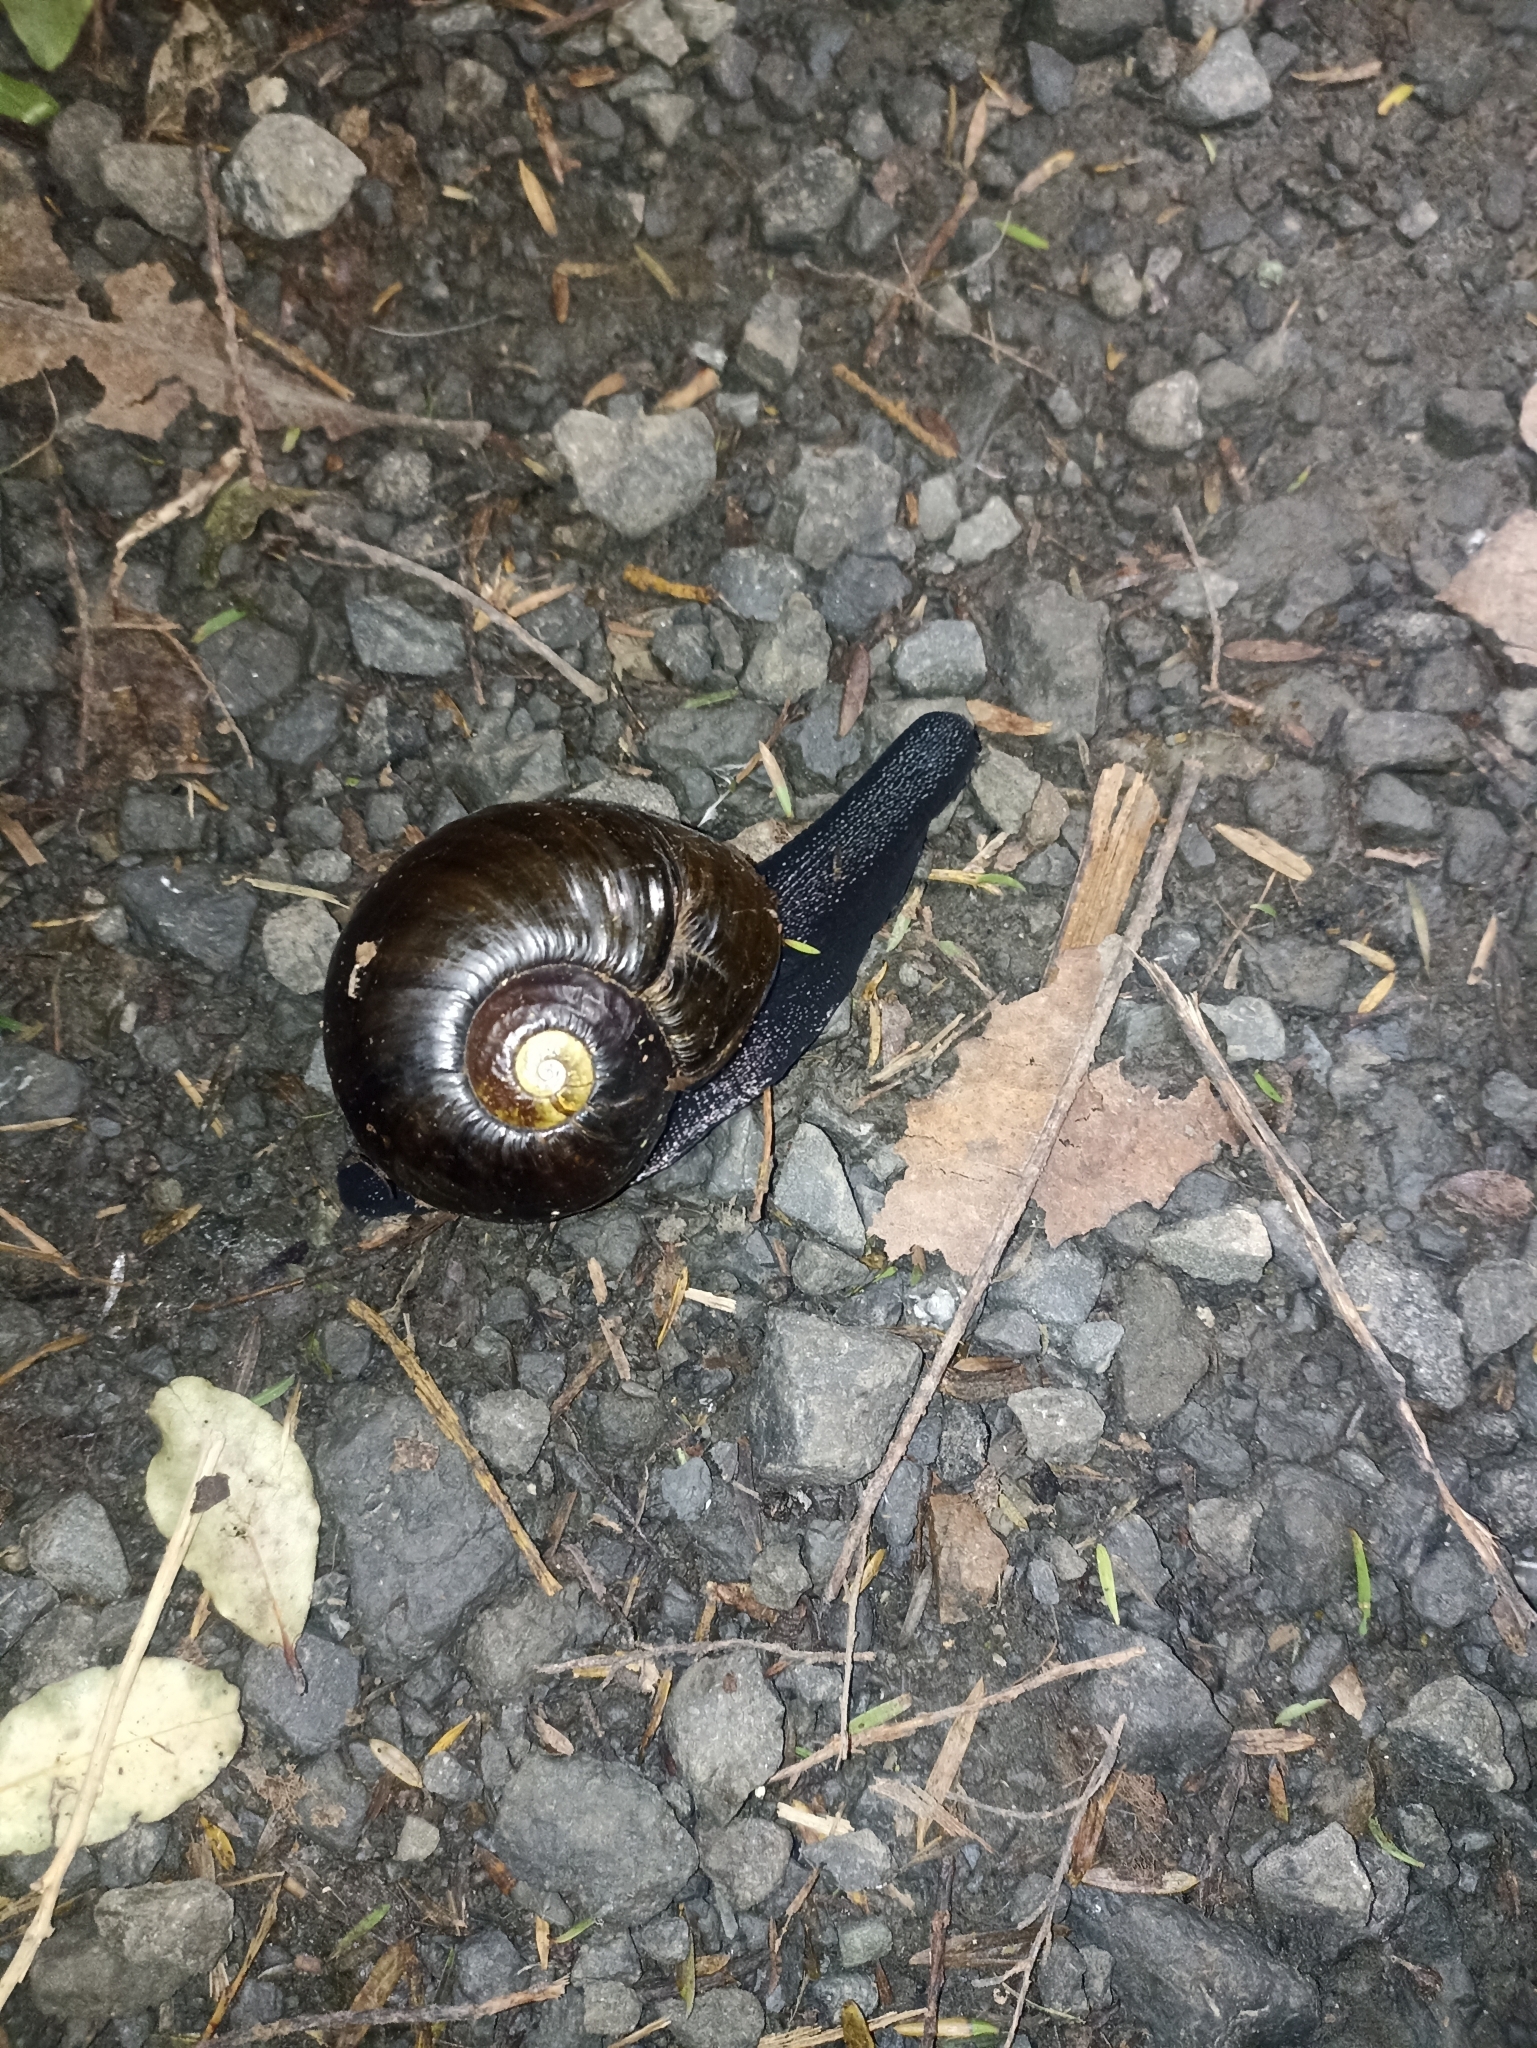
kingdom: Animalia
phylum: Mollusca
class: Gastropoda
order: Stylommatophora
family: Rhytididae
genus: Paryphanta
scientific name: Paryphanta busbyi
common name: Kauri snail
